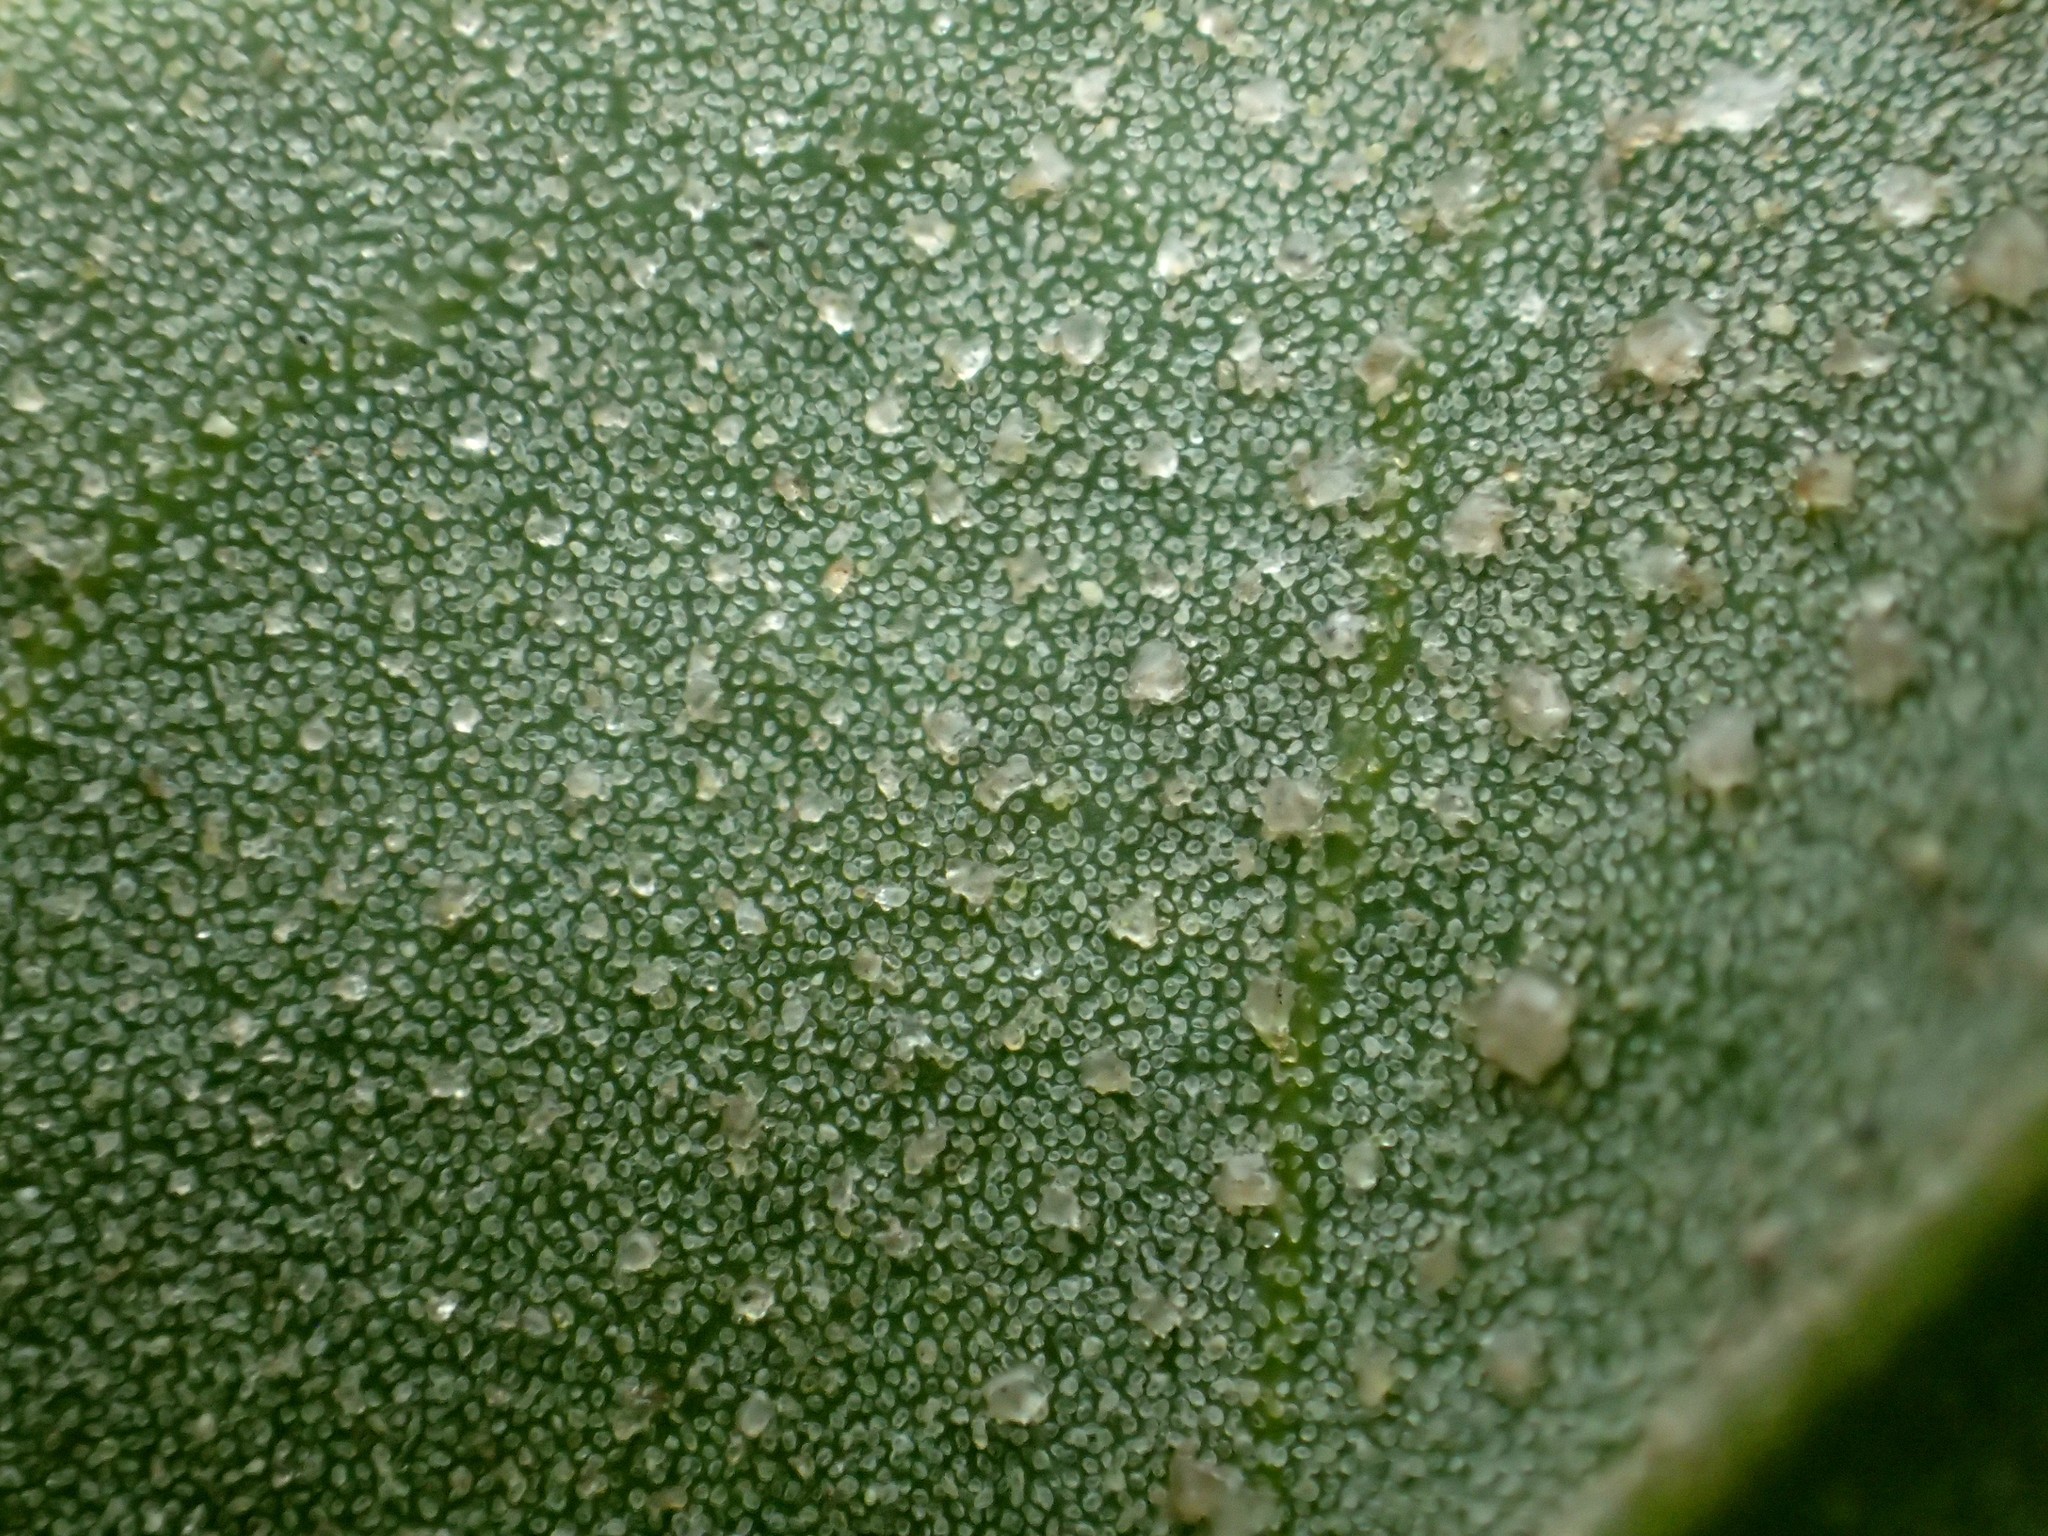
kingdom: Plantae
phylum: Tracheophyta
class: Magnoliopsida
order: Caryophyllales
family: Amaranthaceae
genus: Chenopodium
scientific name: Chenopodium acuminatum
